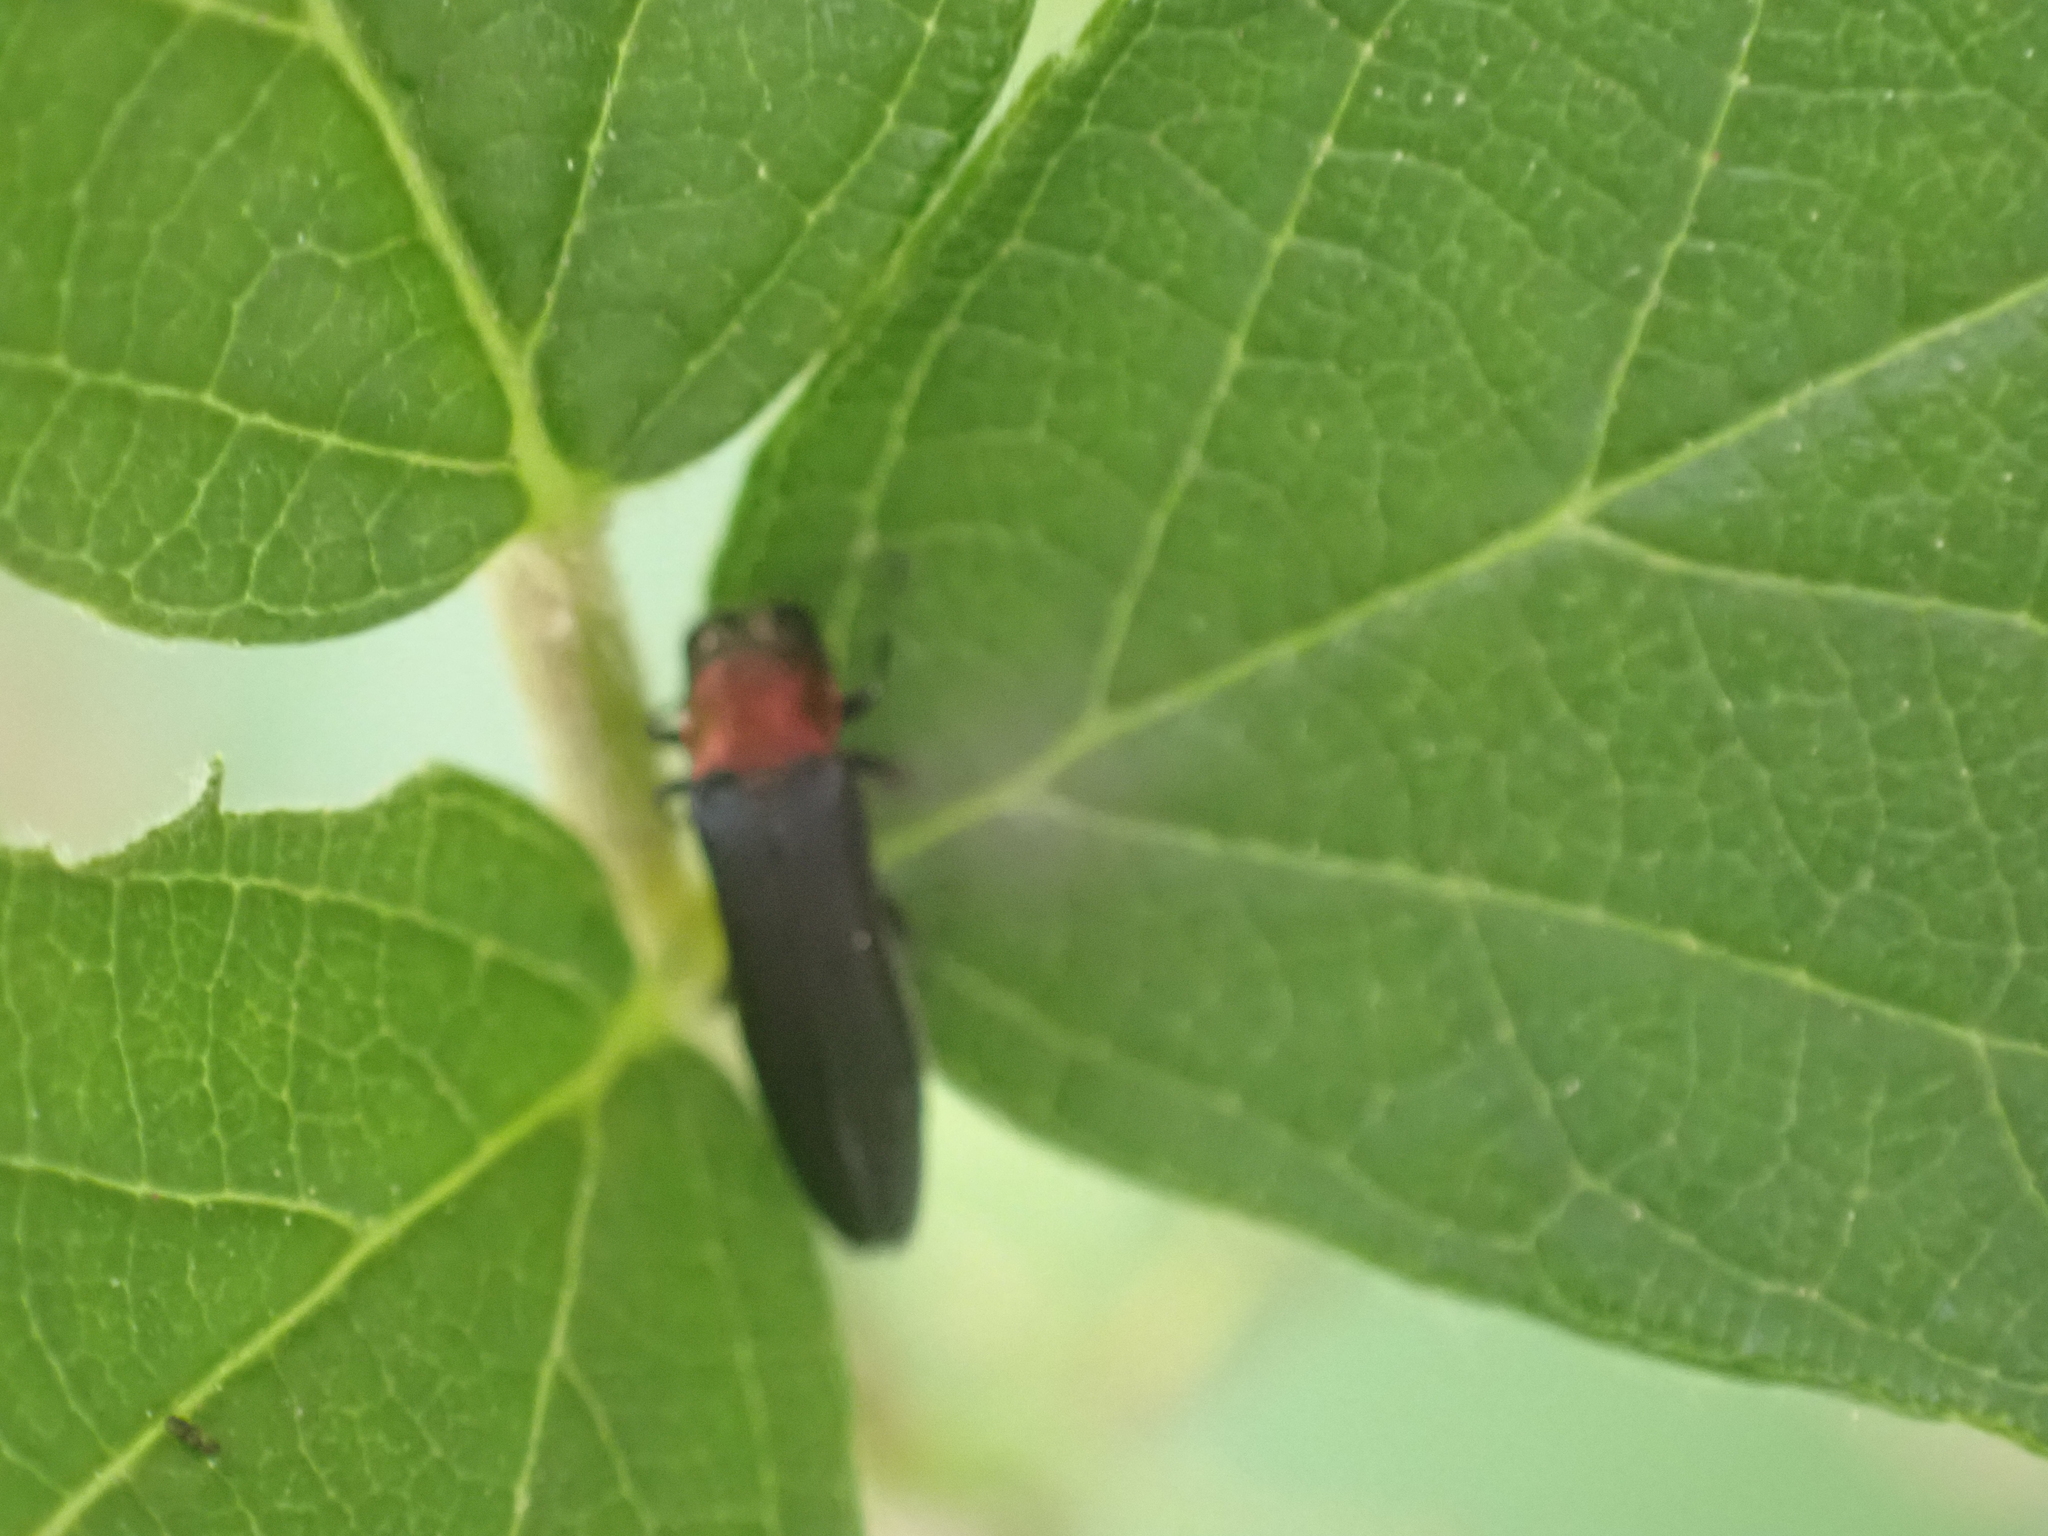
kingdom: Animalia
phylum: Arthropoda
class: Insecta
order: Coleoptera
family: Buprestidae
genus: Agrilus
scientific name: Agrilus ruficollis
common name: Red-necked cane borer beetle
